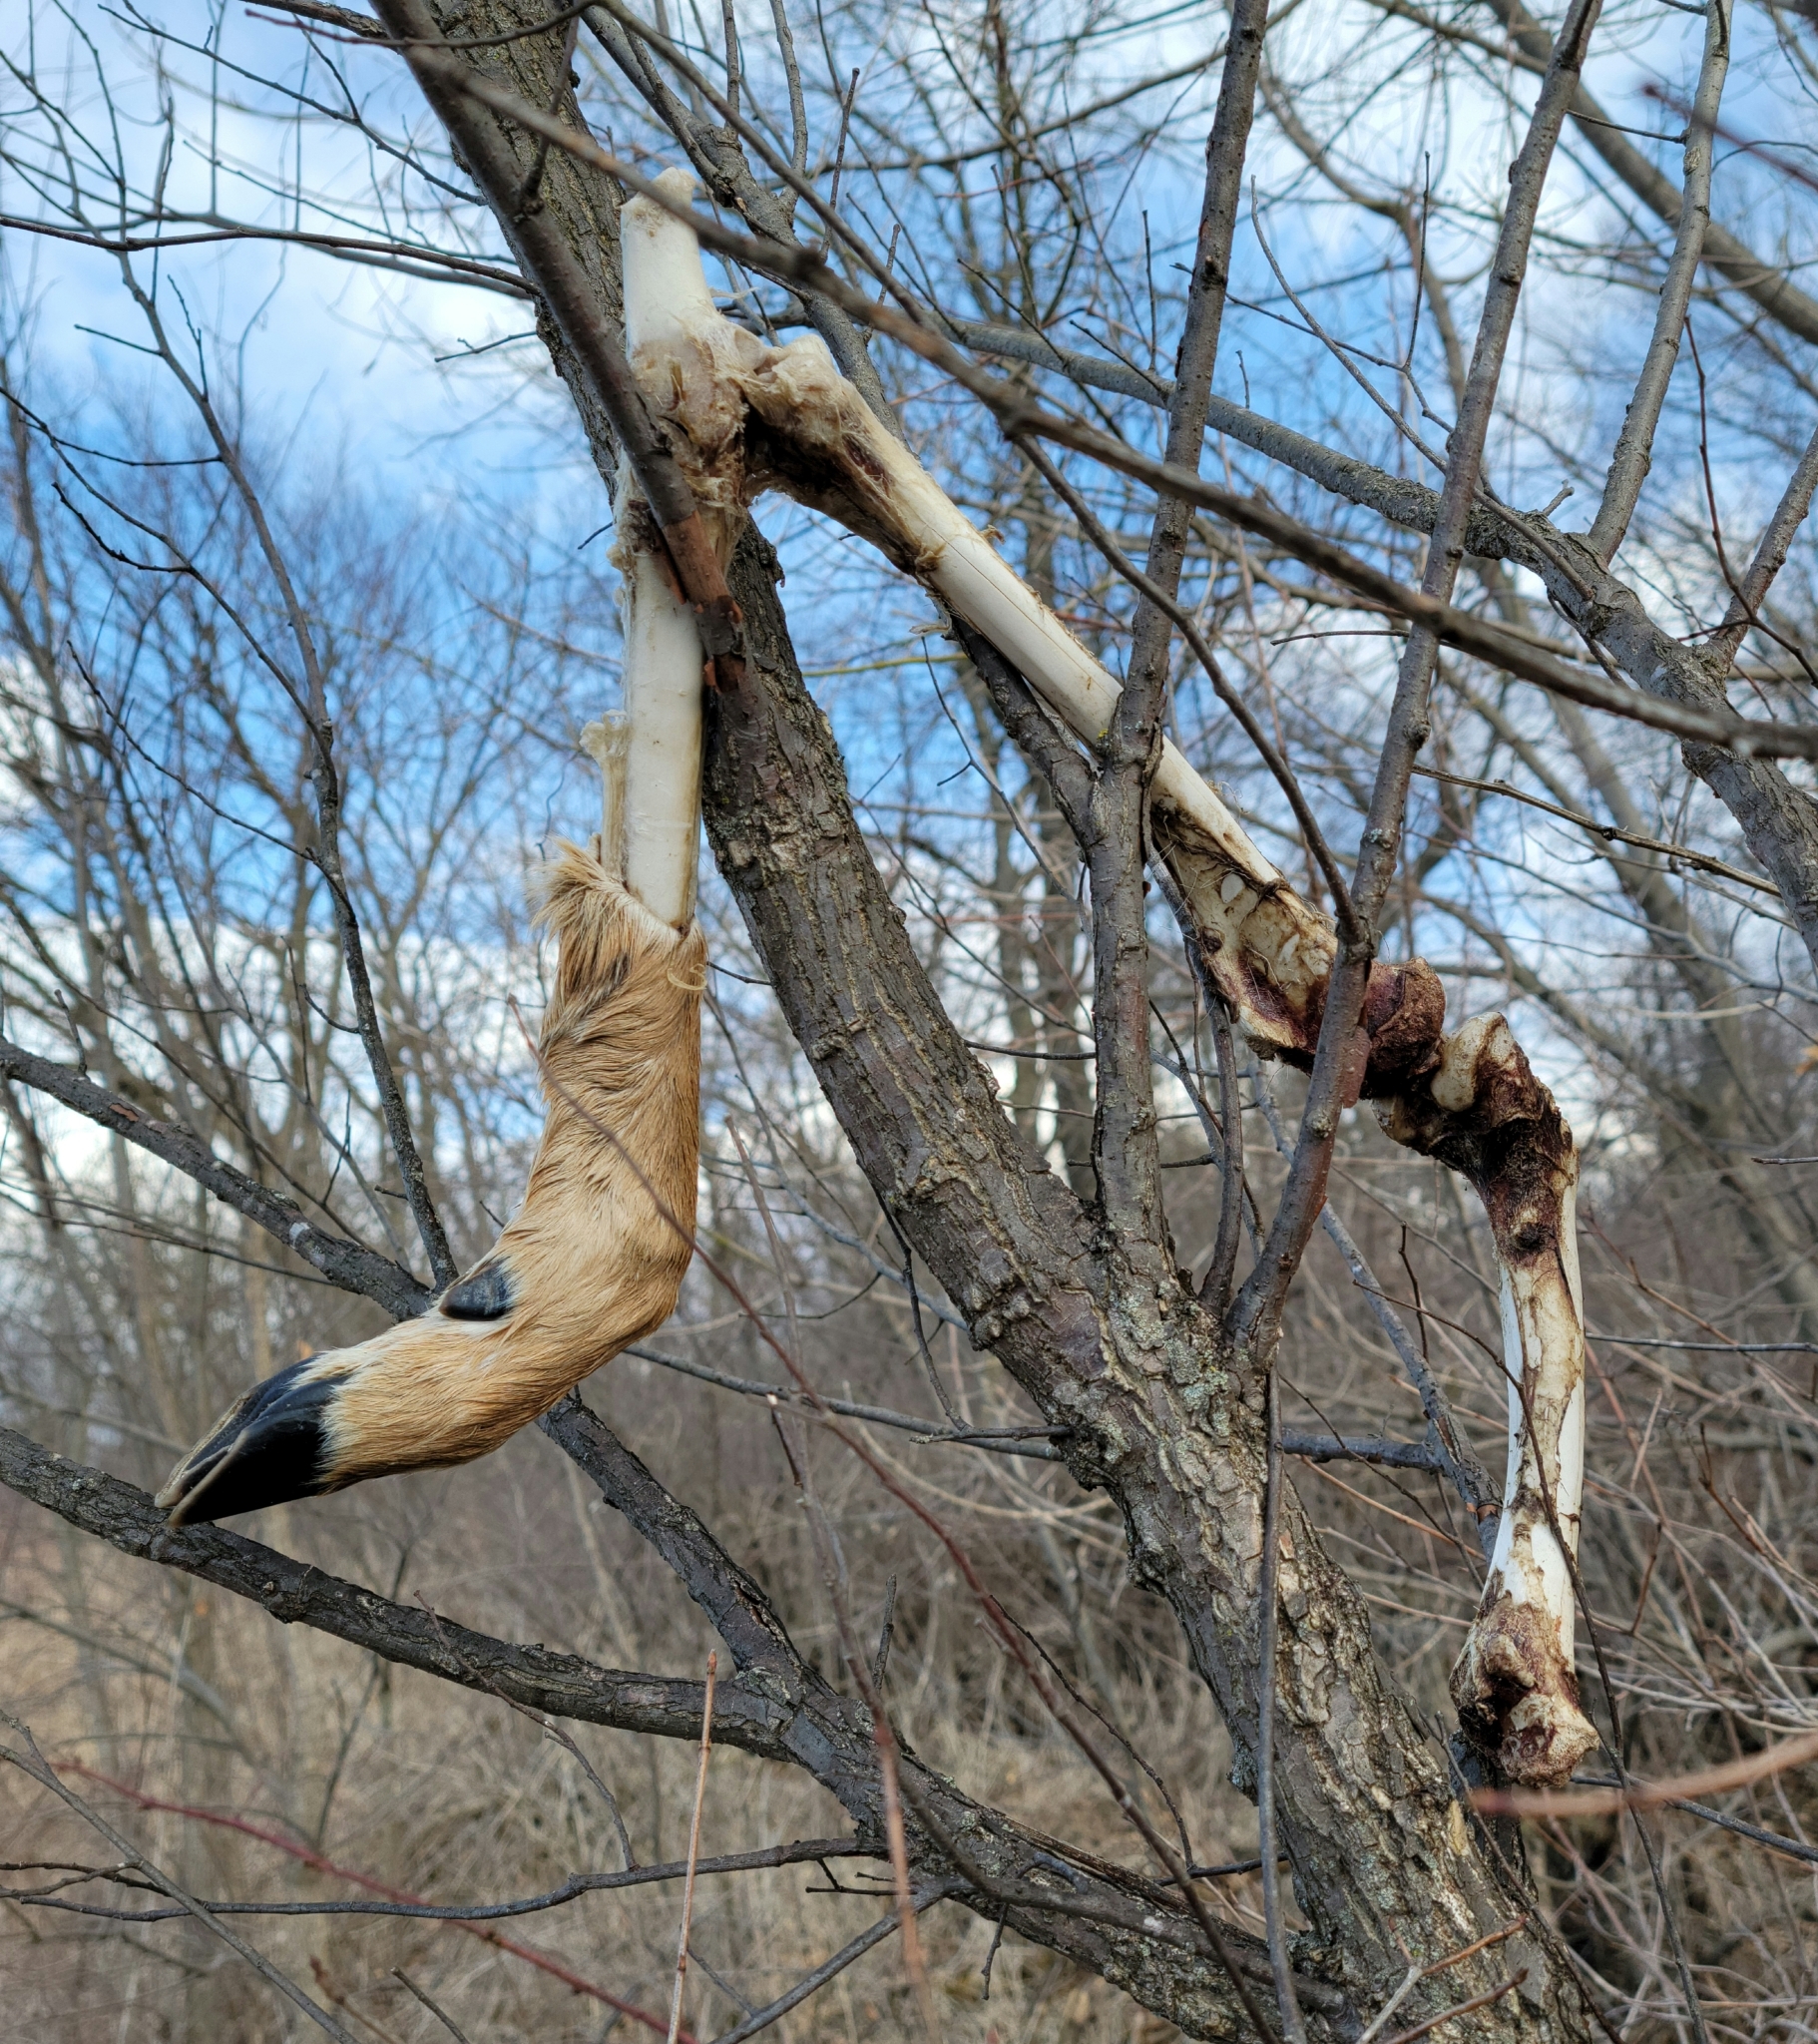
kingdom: Animalia
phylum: Chordata
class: Mammalia
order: Artiodactyla
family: Cervidae
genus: Odocoileus
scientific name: Odocoileus virginianus
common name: White-tailed deer
